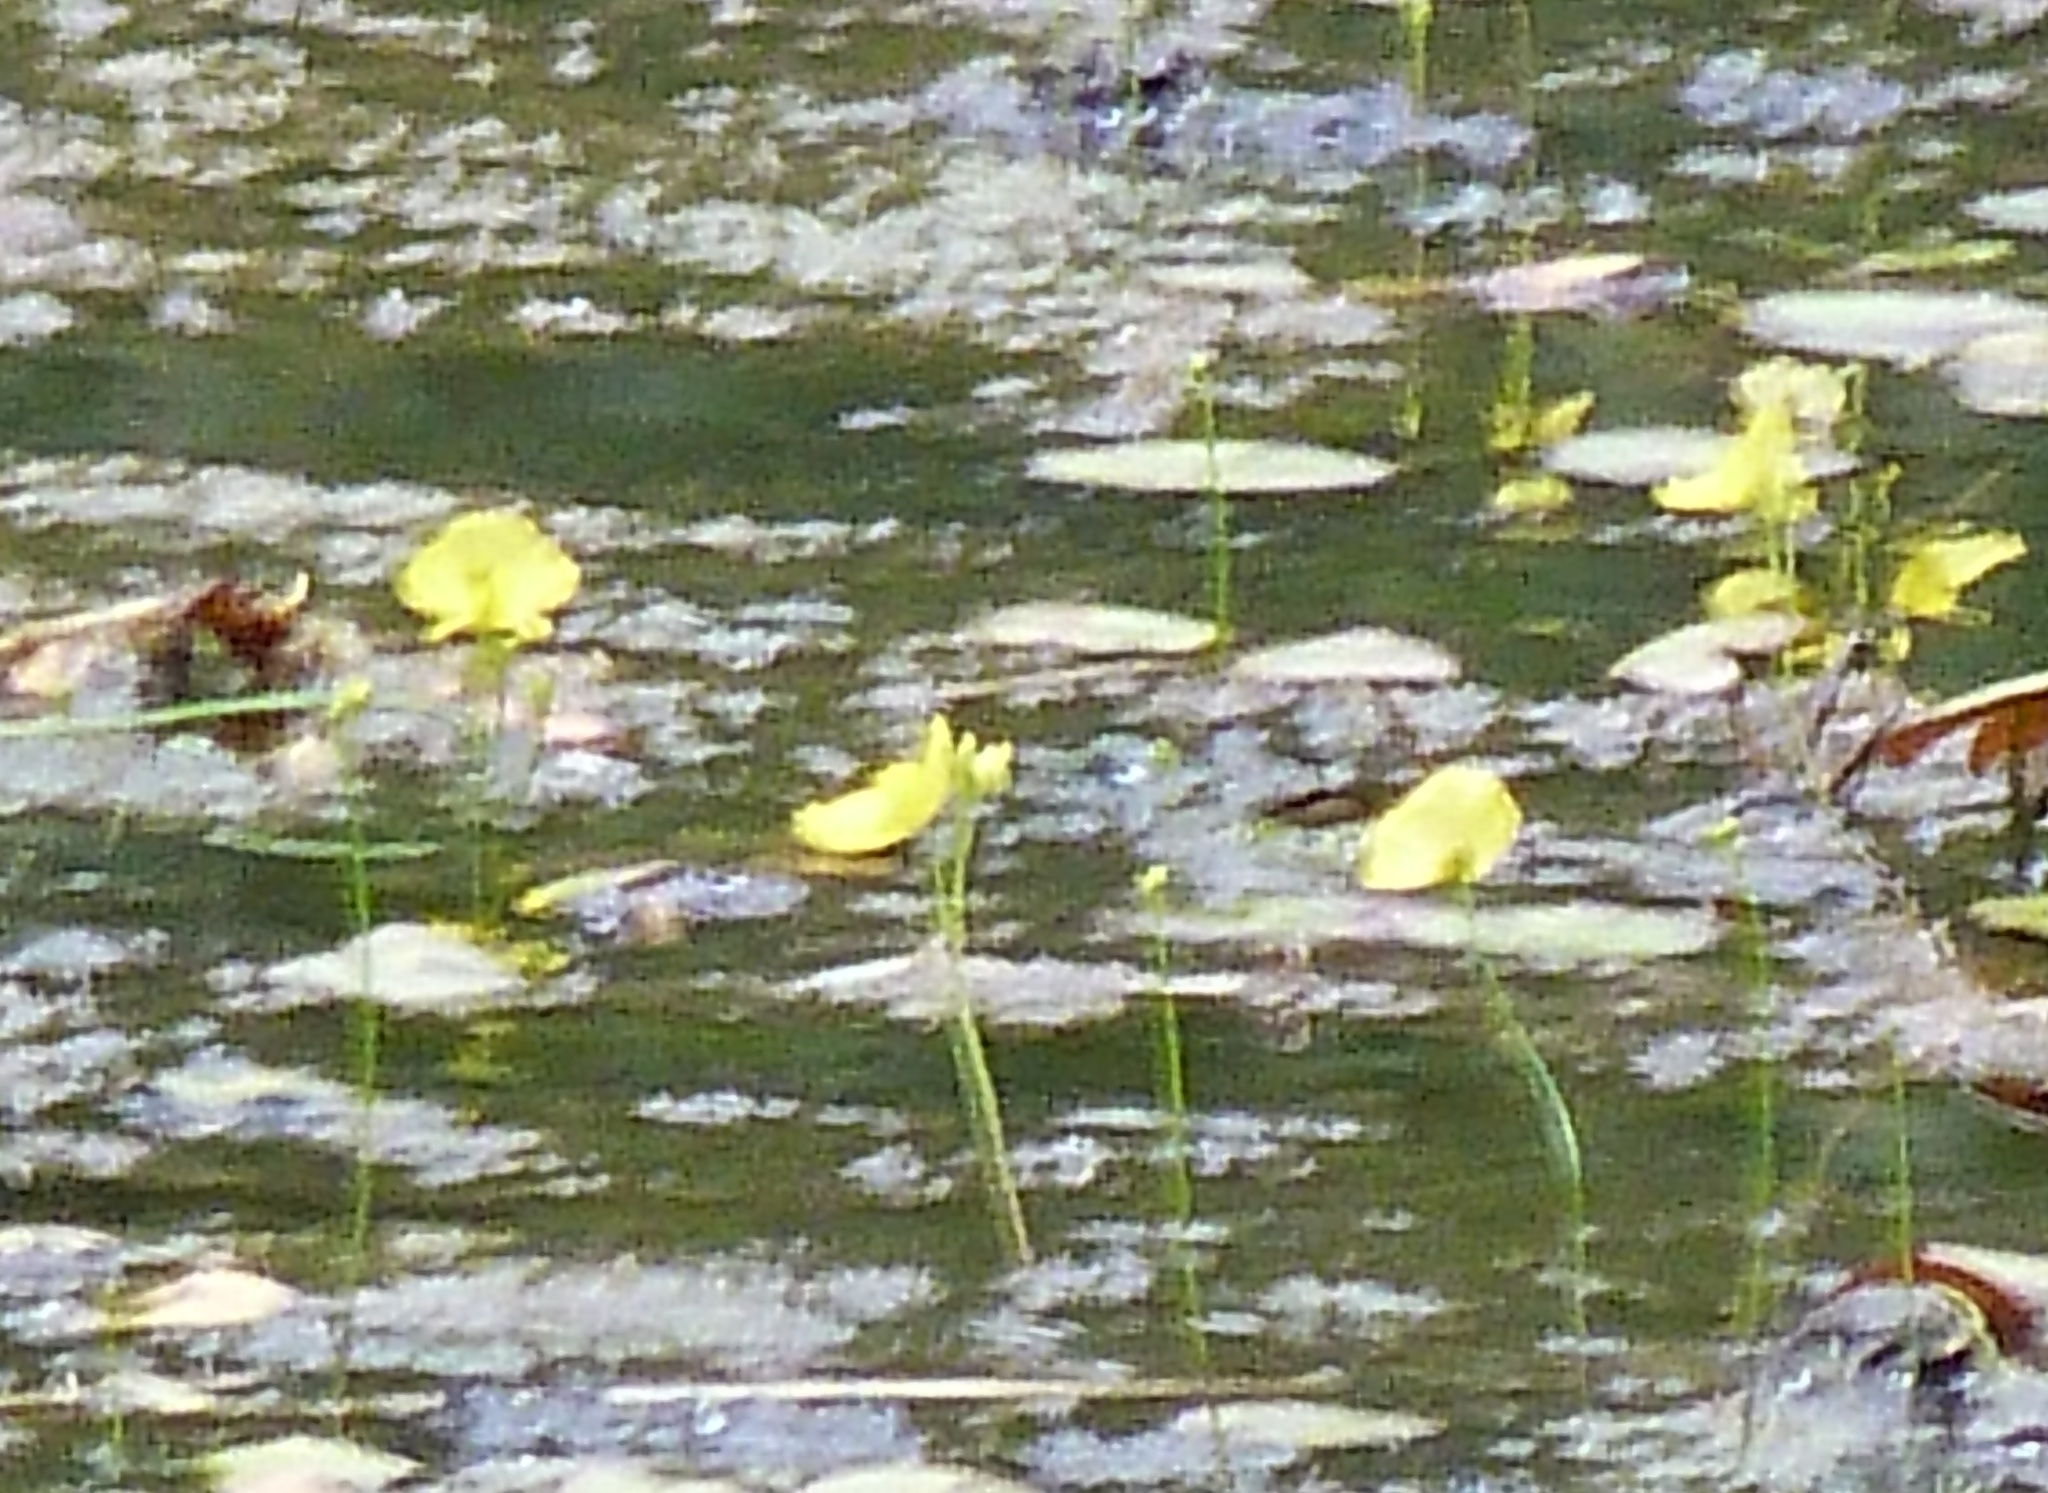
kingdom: Plantae
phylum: Tracheophyta
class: Magnoliopsida
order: Lamiales
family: Lentibulariaceae
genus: Utricularia
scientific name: Utricularia aurea
